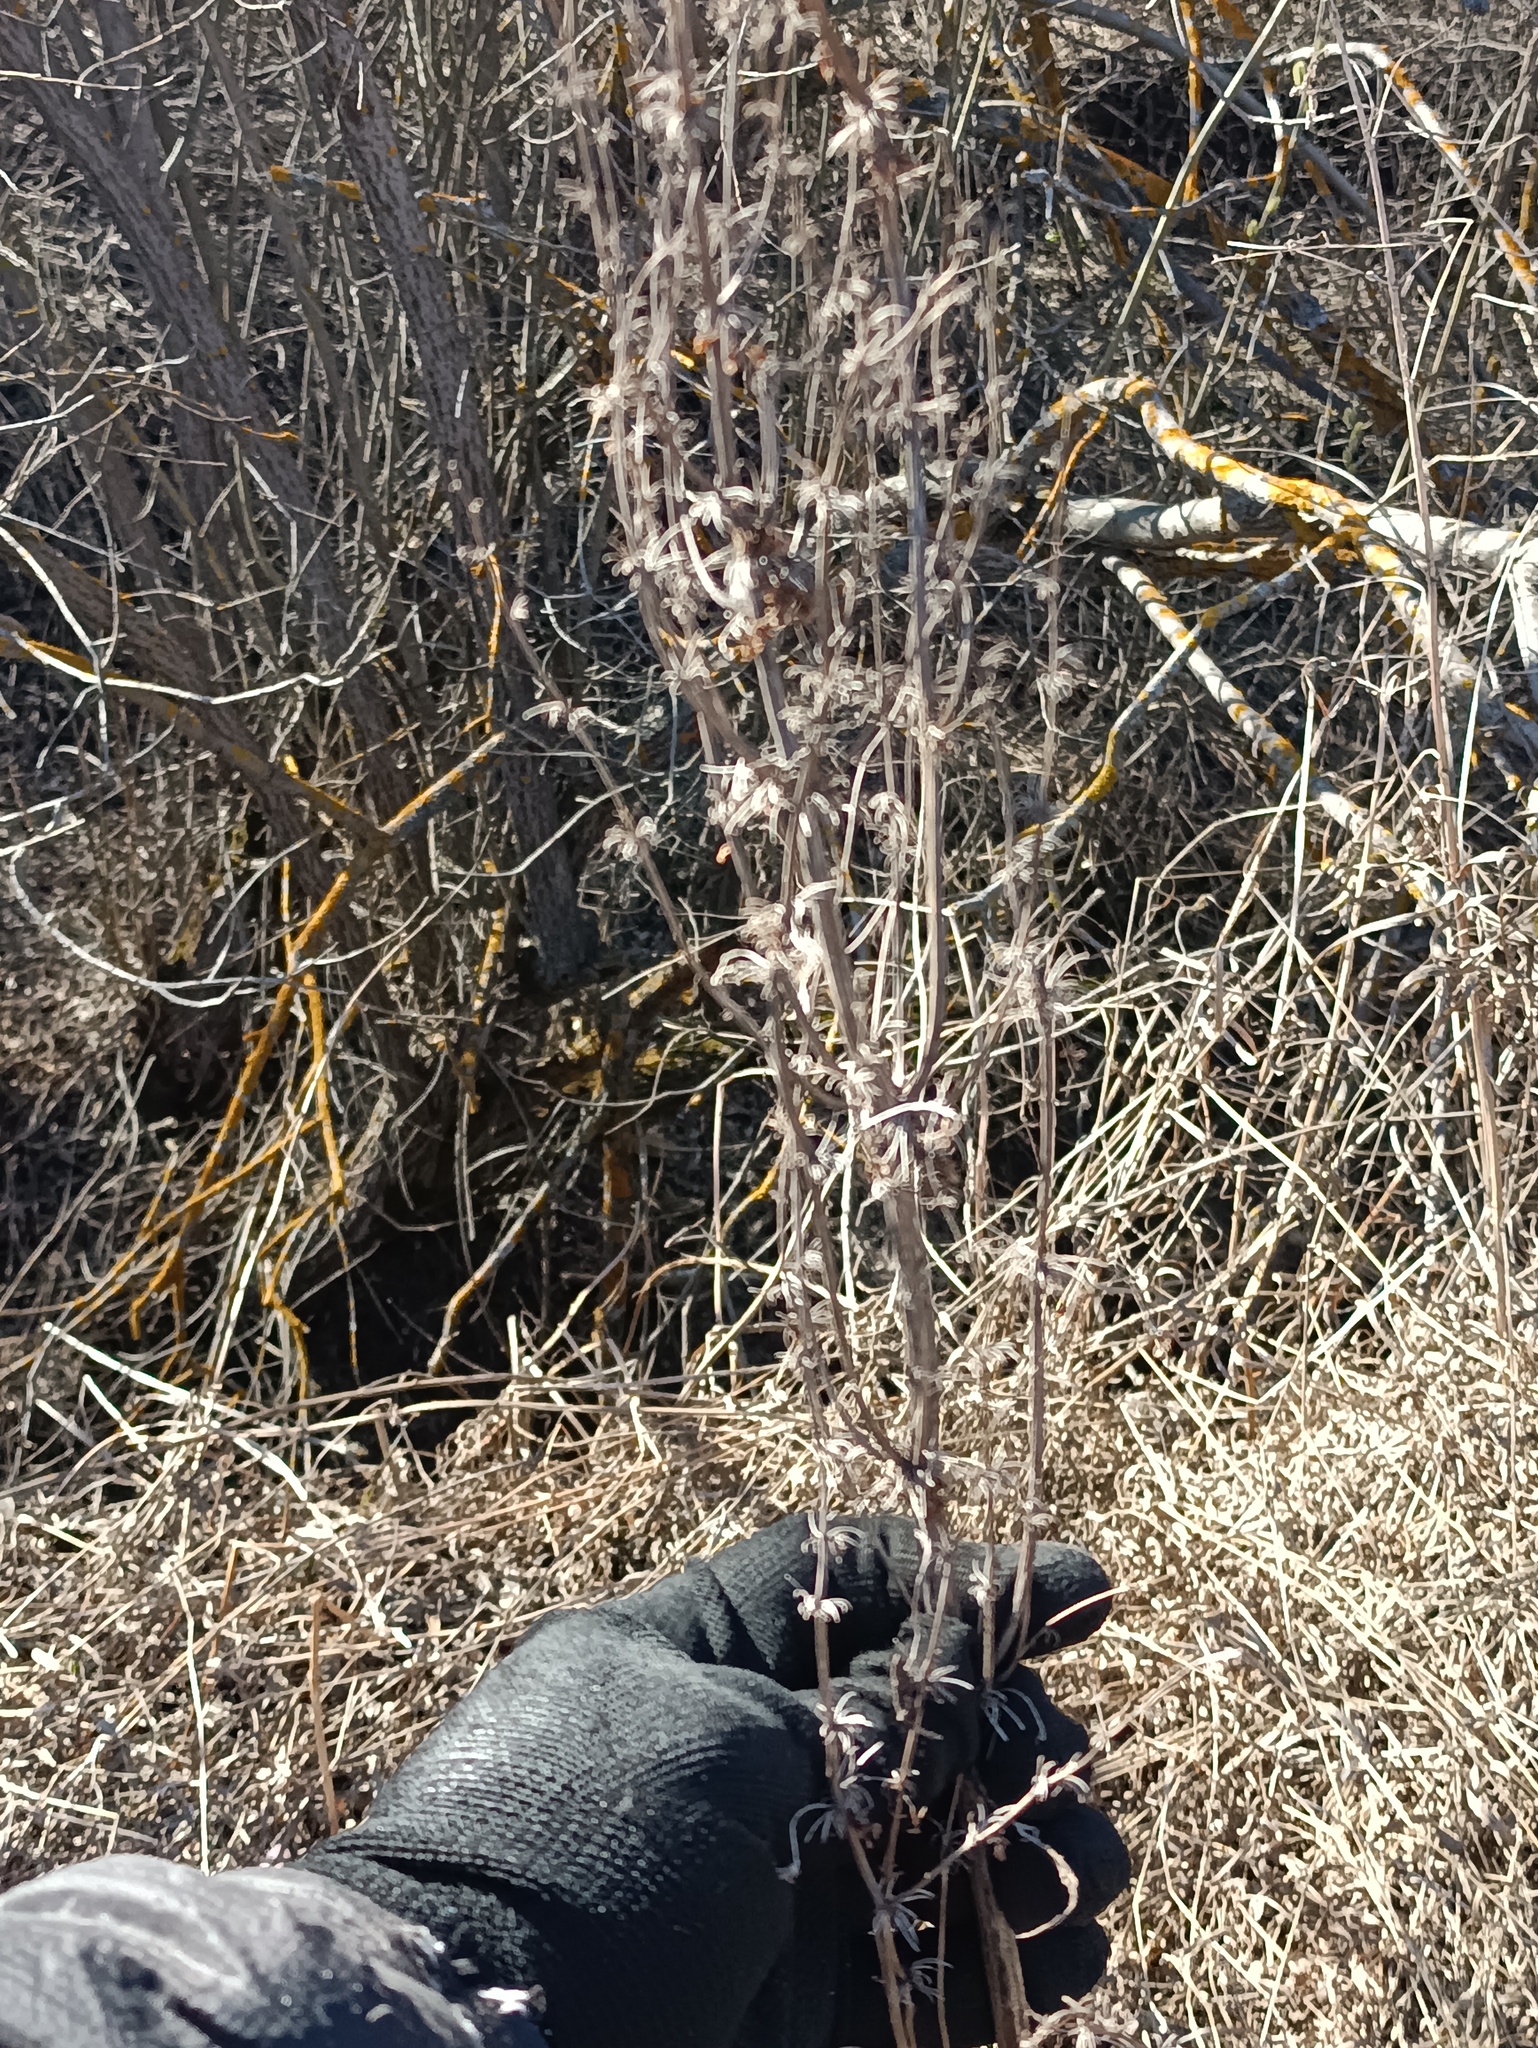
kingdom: Plantae
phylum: Tracheophyta
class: Magnoliopsida
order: Caryophyllales
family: Polygonaceae
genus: Rumex
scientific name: Rumex
